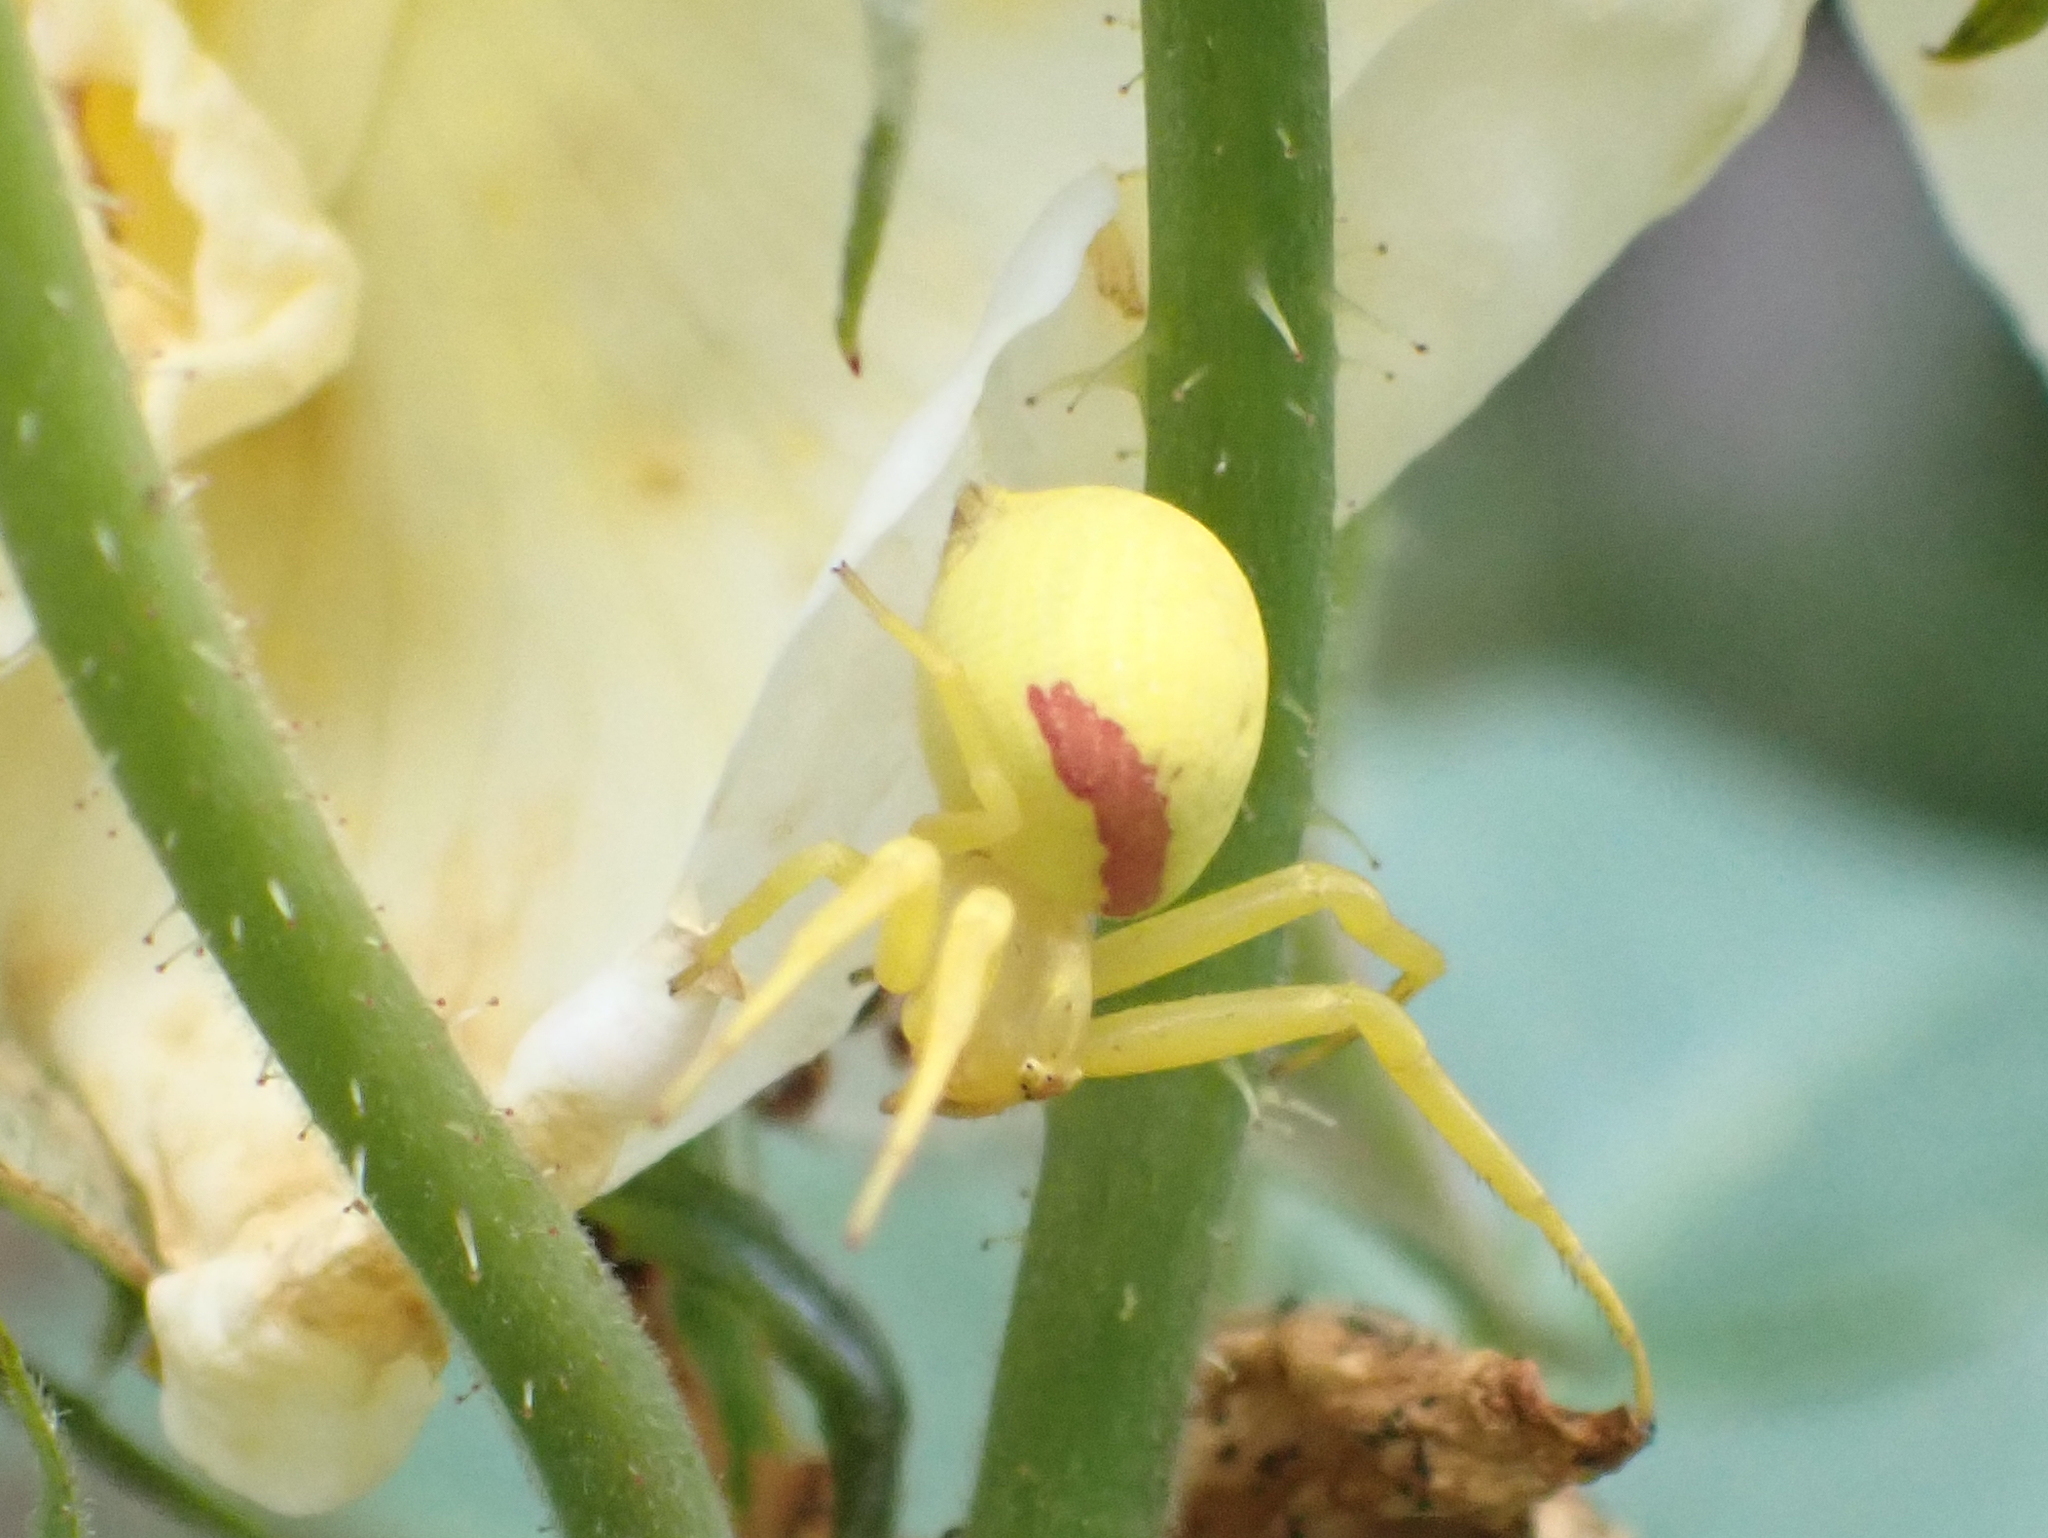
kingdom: Animalia
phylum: Arthropoda
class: Arachnida
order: Araneae
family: Thomisidae
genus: Misumena
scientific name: Misumena vatia
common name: Goldenrod crab spider
